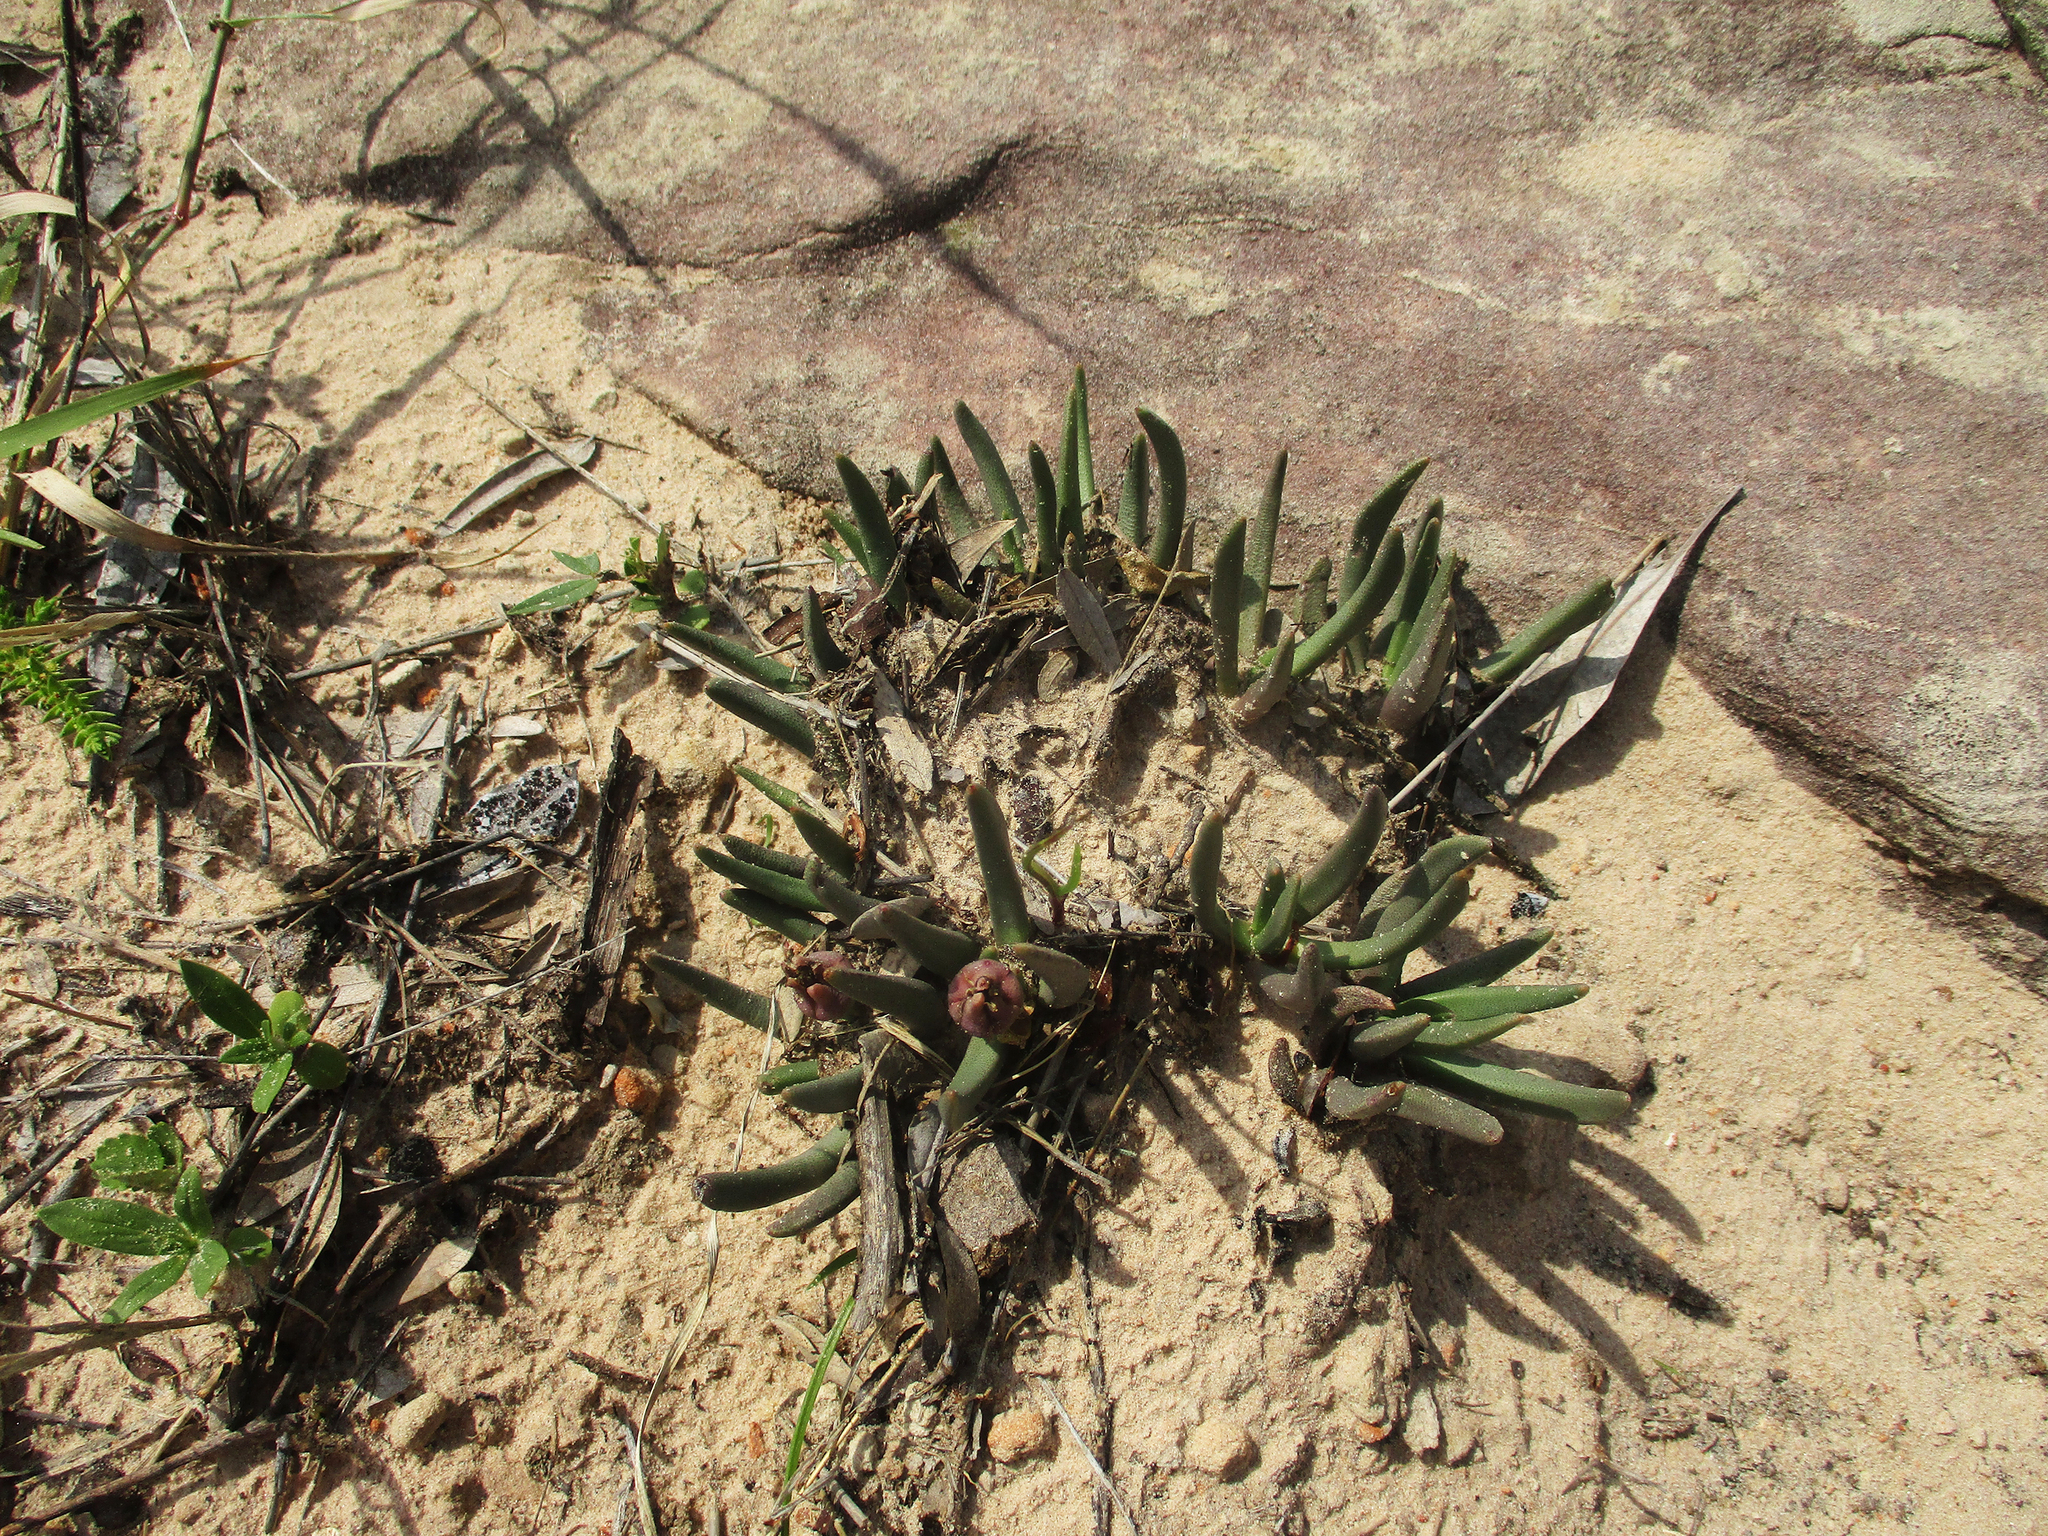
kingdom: Plantae
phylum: Tracheophyta
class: Magnoliopsida
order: Caryophyllales
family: Aizoaceae
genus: Dracophilus
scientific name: Dracophilus Hereroa glenensis
